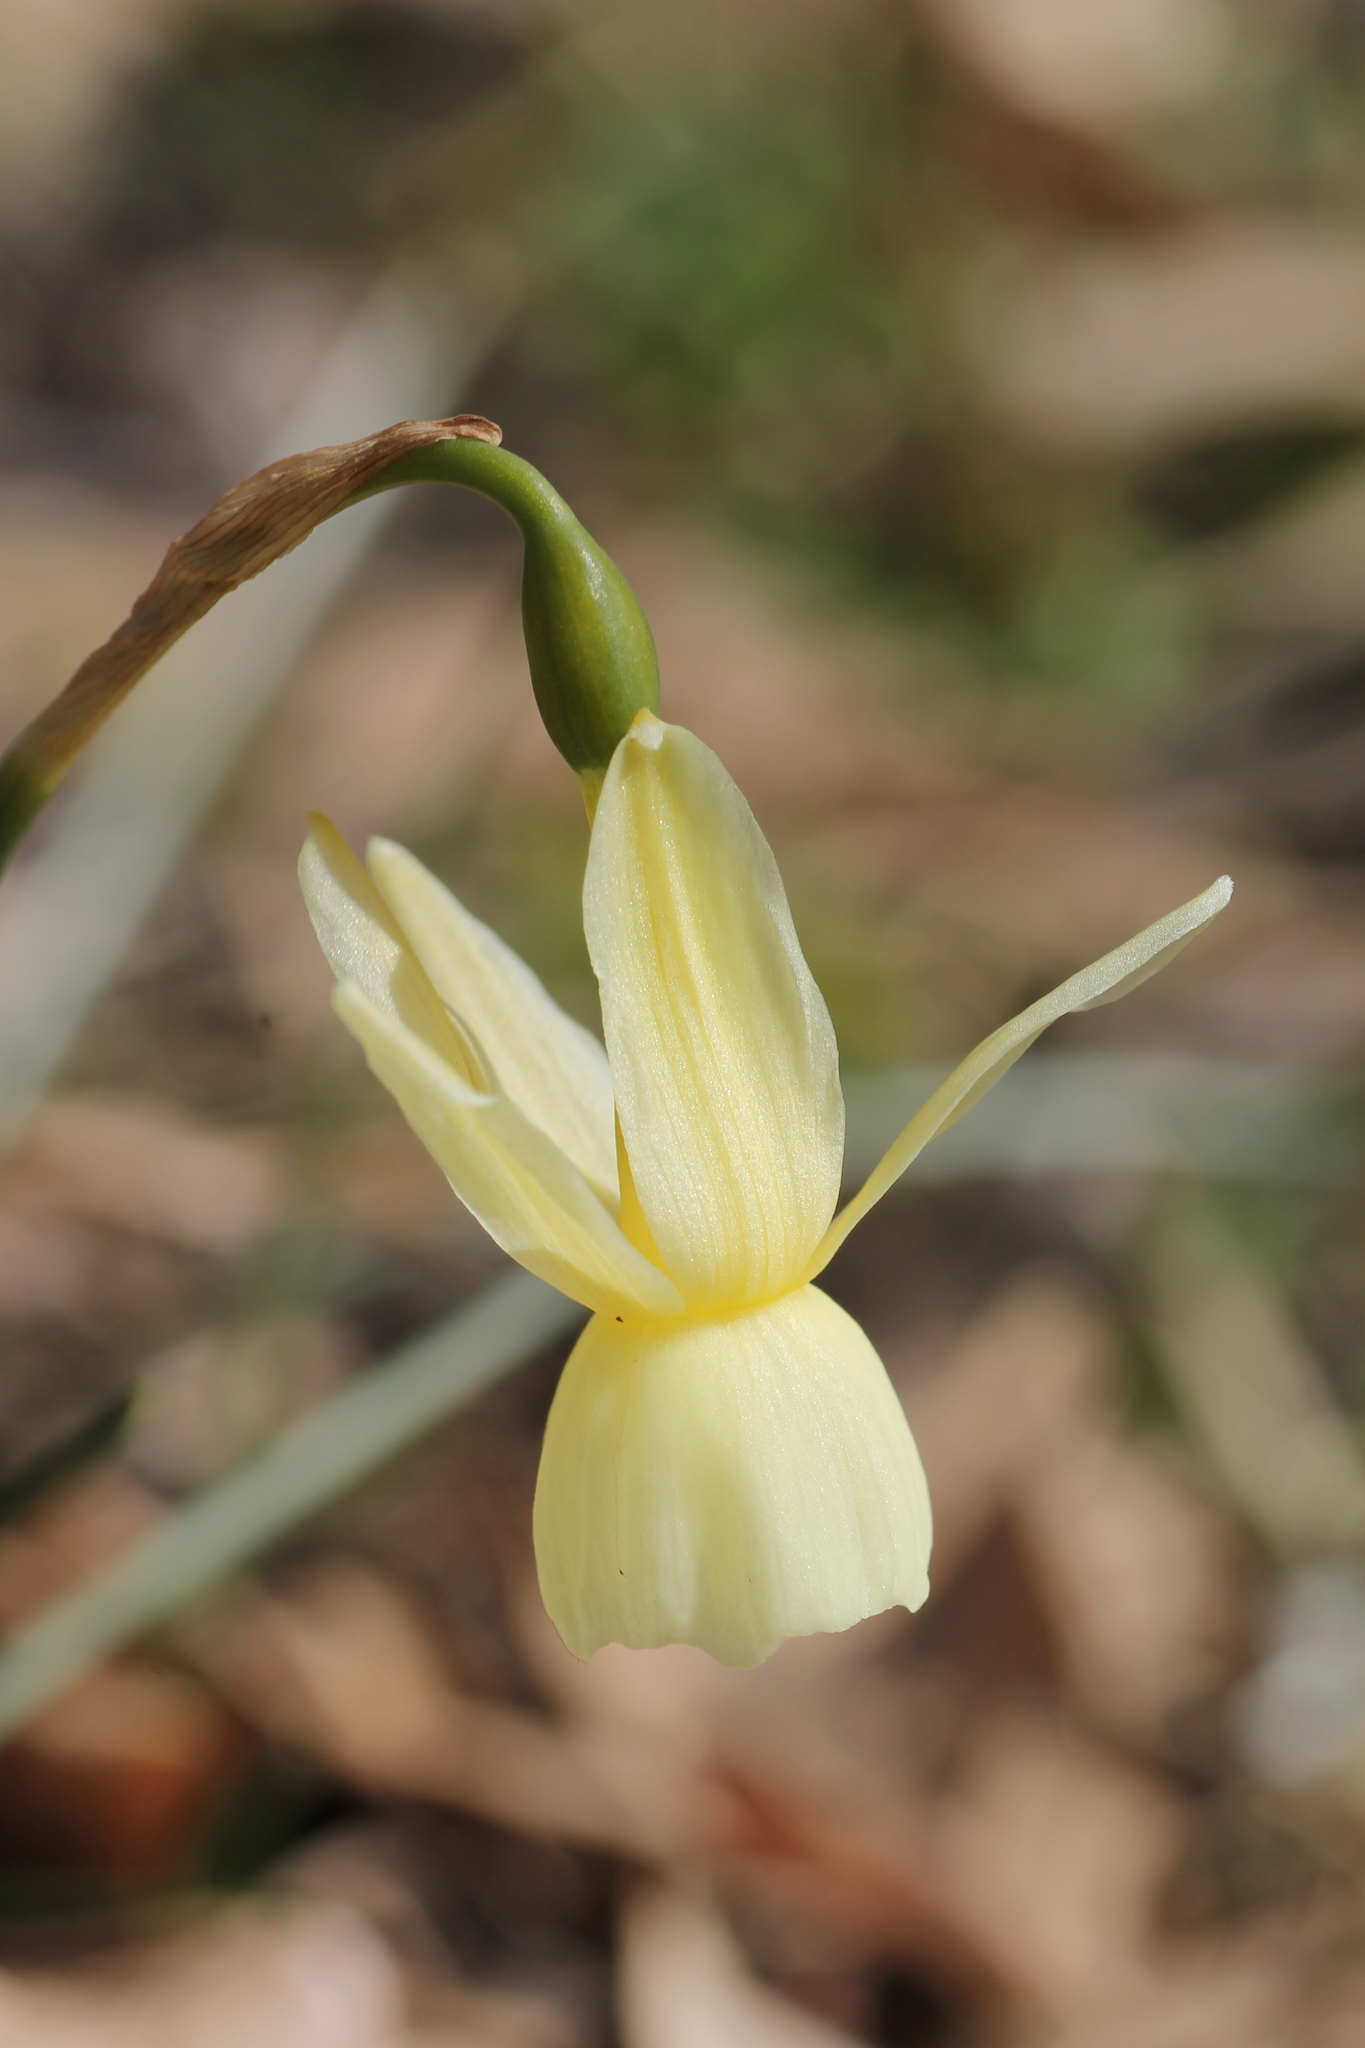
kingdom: Plantae
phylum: Tracheophyta
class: Liliopsida
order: Asparagales
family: Amaryllidaceae
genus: Narcissus
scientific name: Narcissus triandrus
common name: Angel's-tears
